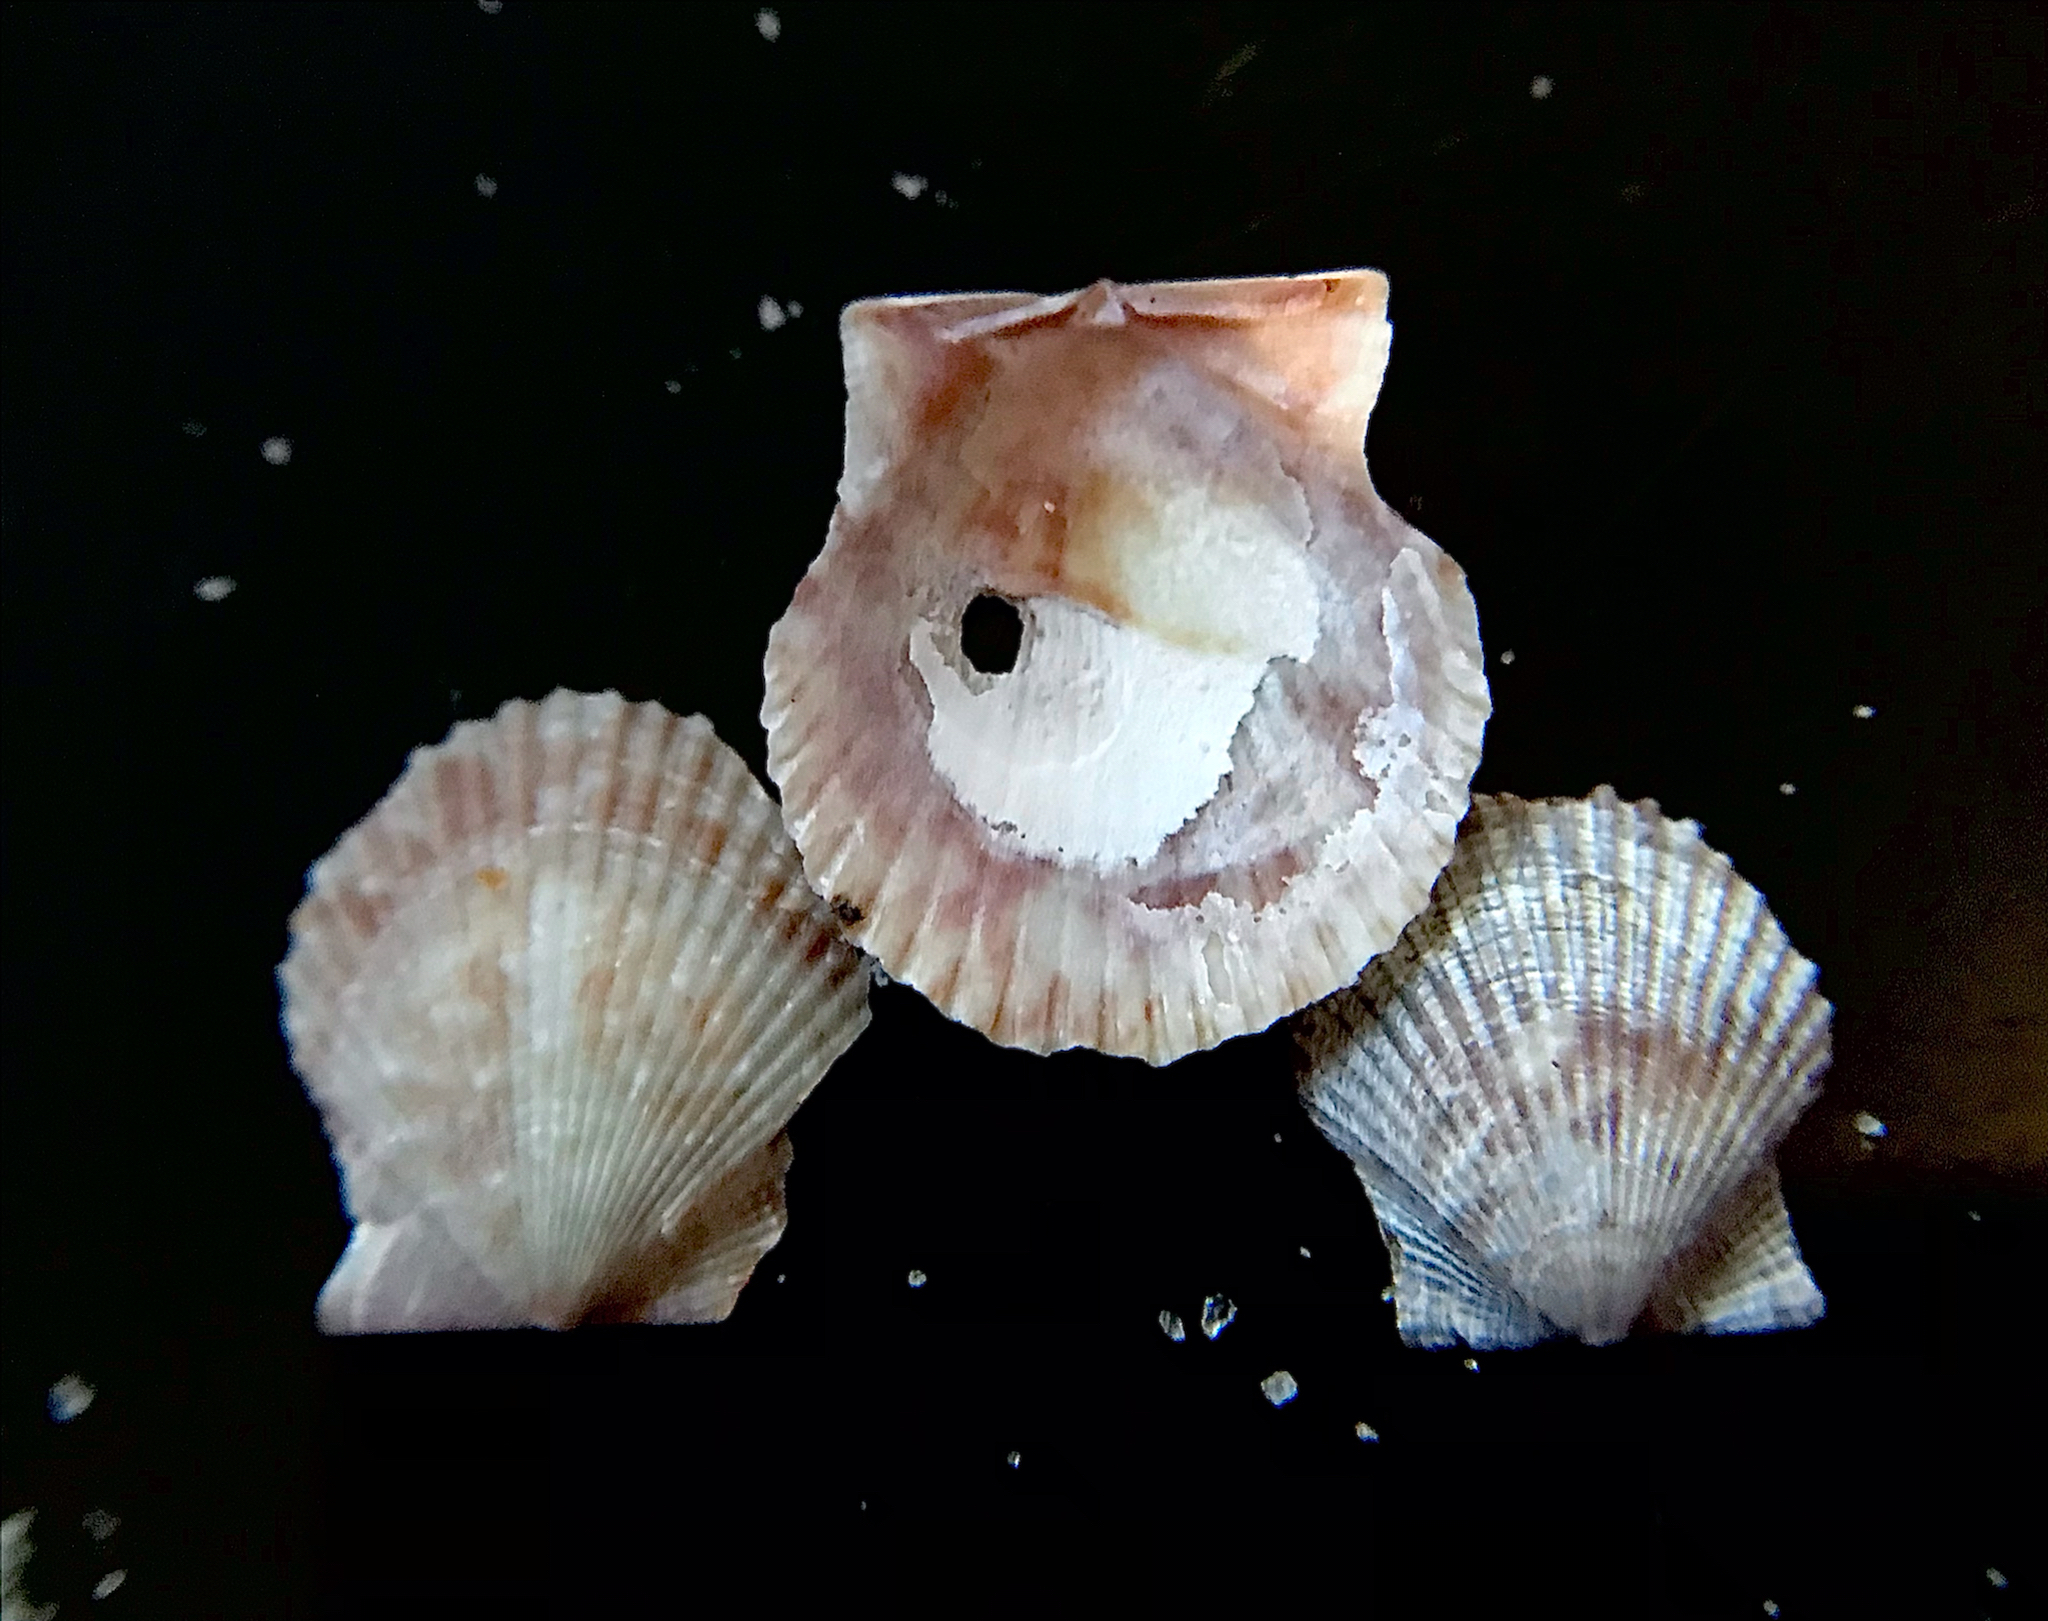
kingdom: Animalia
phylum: Mollusca
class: Bivalvia
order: Pectinida
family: Pectinidae
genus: Lindapecten
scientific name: Lindapecten muscosus
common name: Rough scallop
